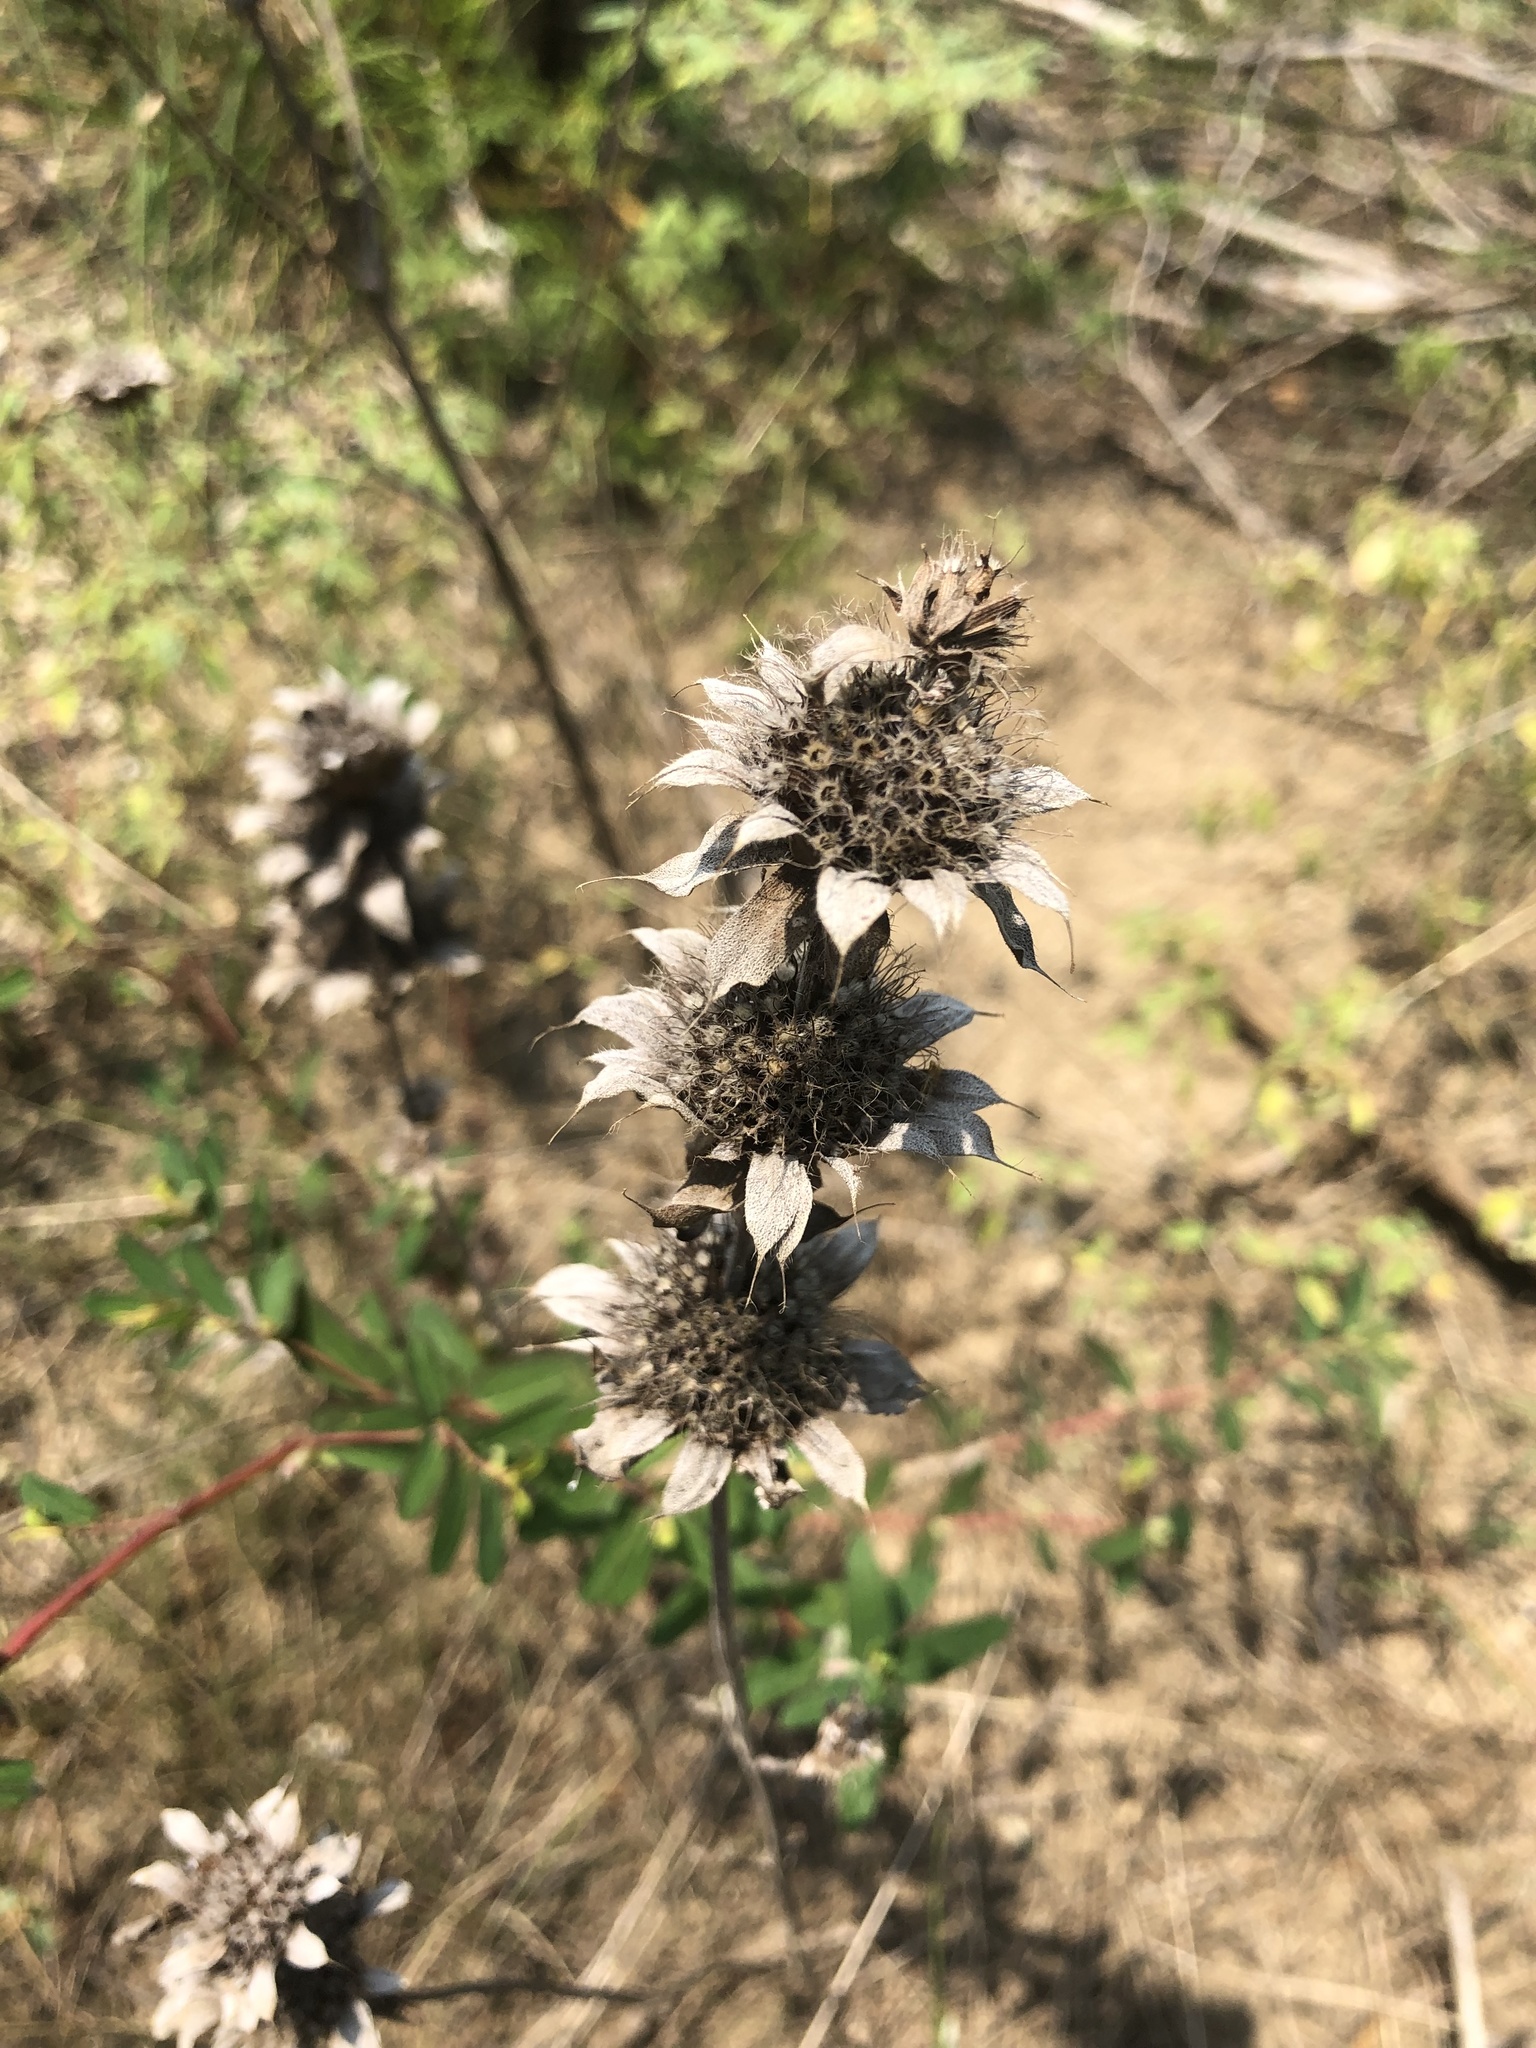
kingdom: Plantae
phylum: Tracheophyta
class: Magnoliopsida
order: Lamiales
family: Lamiaceae
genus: Monarda
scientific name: Monarda citriodora
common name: Lemon beebalm
